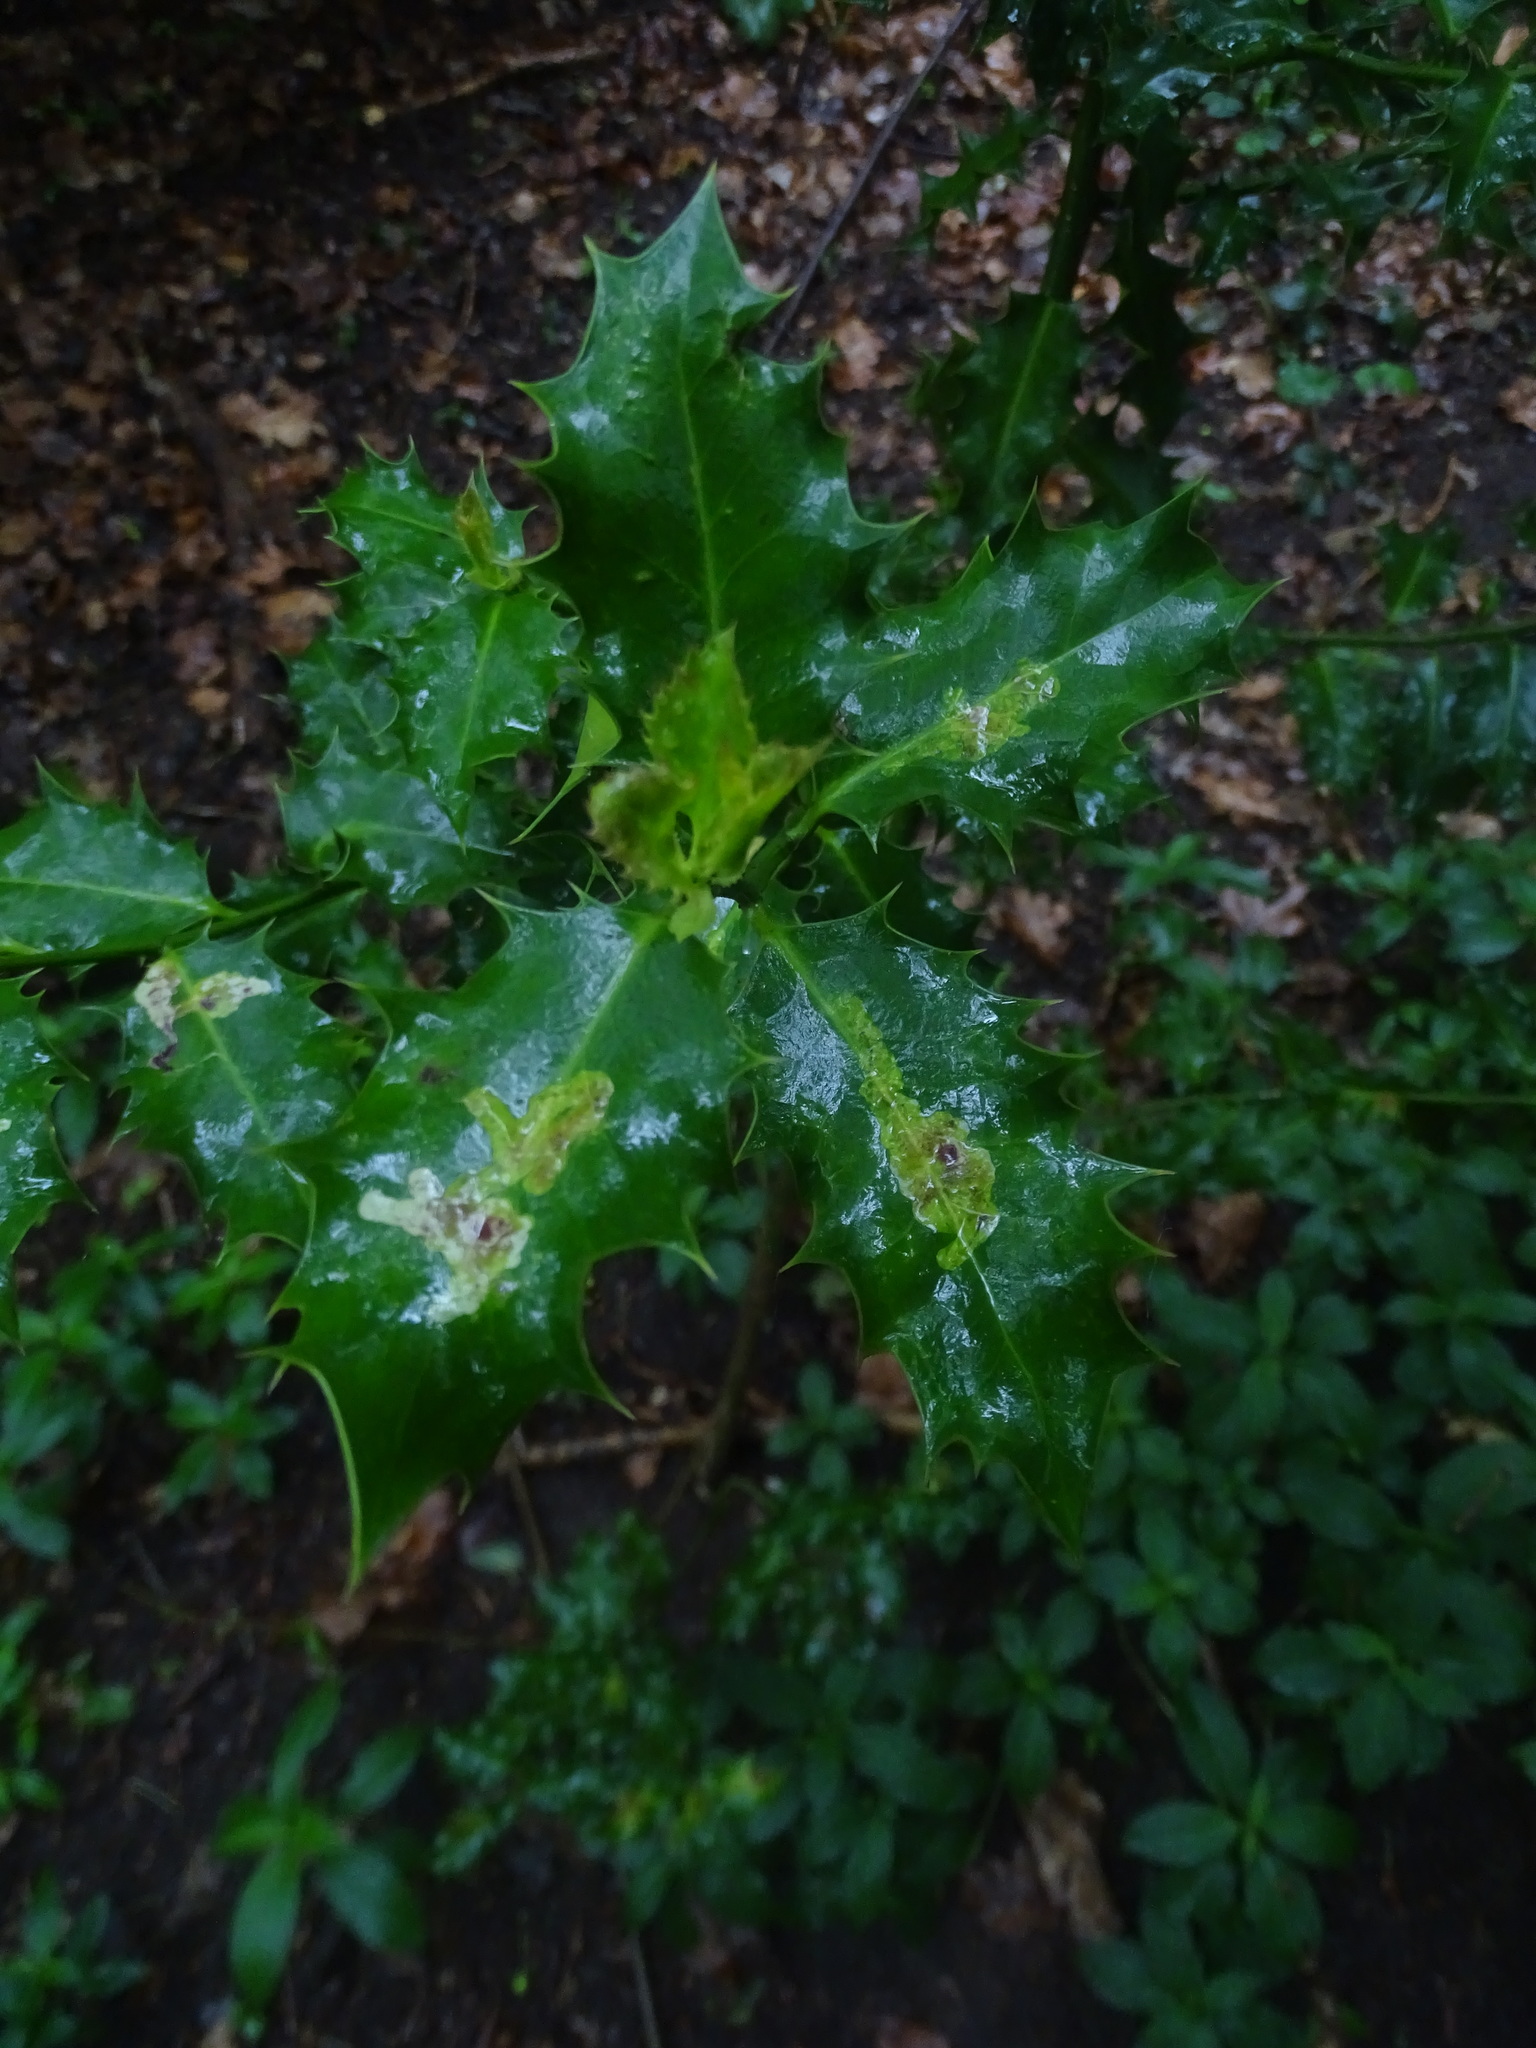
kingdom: Plantae
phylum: Tracheophyta
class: Magnoliopsida
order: Aquifoliales
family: Aquifoliaceae
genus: Ilex
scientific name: Ilex aquifolium
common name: English holly
